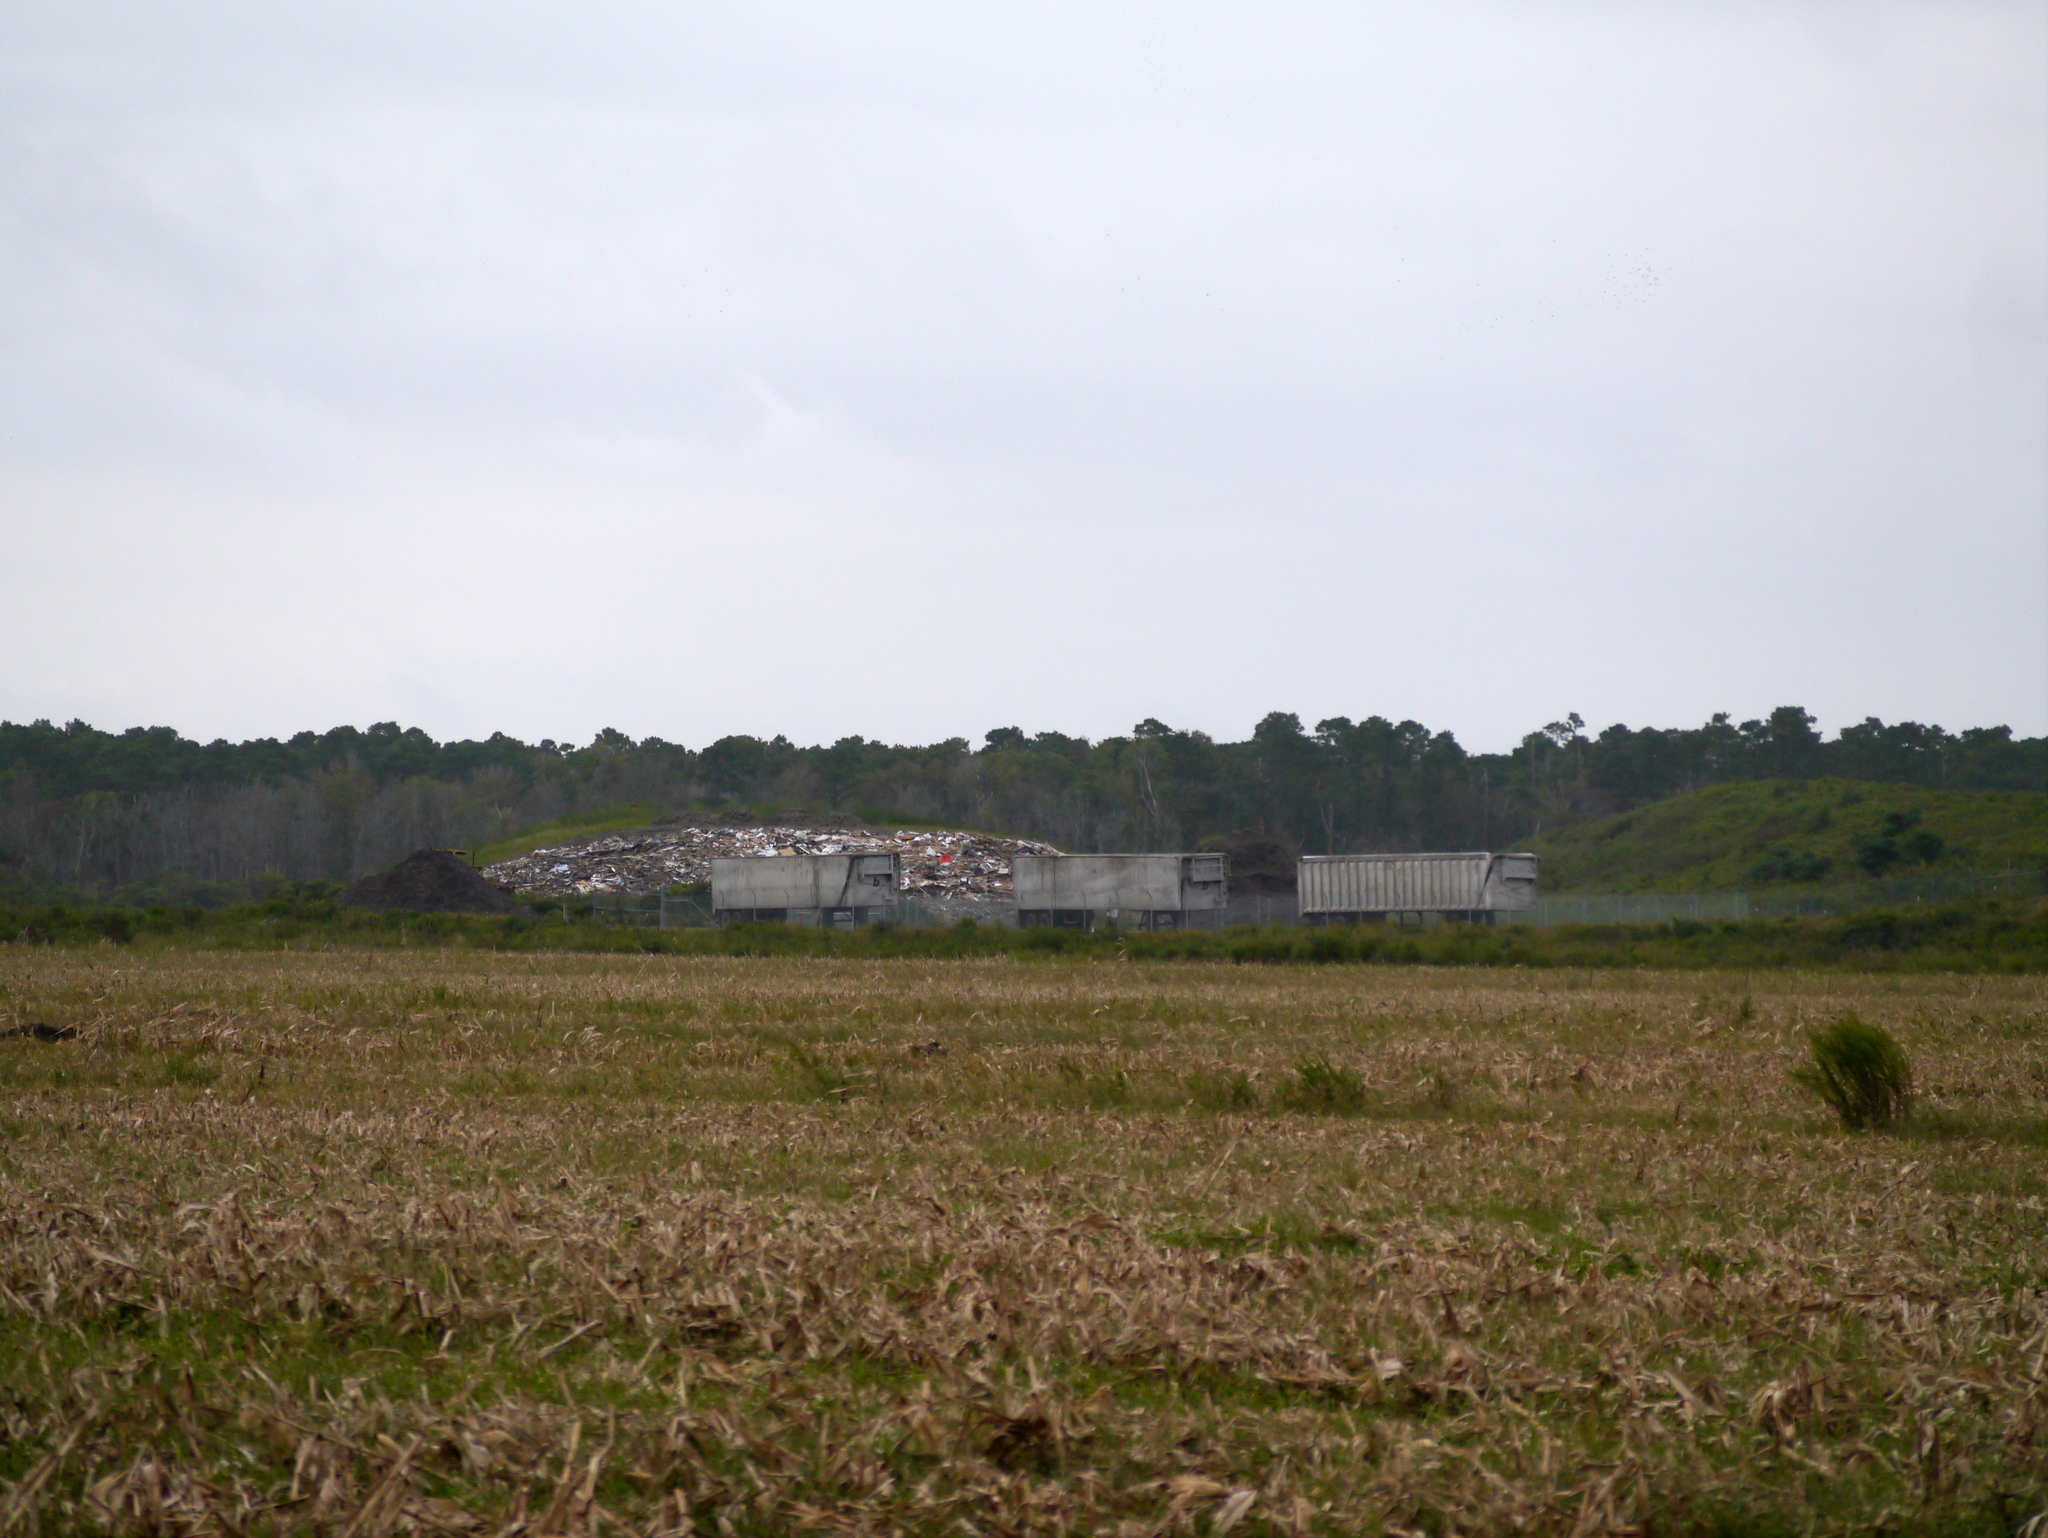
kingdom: Animalia
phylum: Chordata
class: Mammalia
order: Carnivora
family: Ursidae
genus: Ursus
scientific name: Ursus americanus
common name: American black bear
